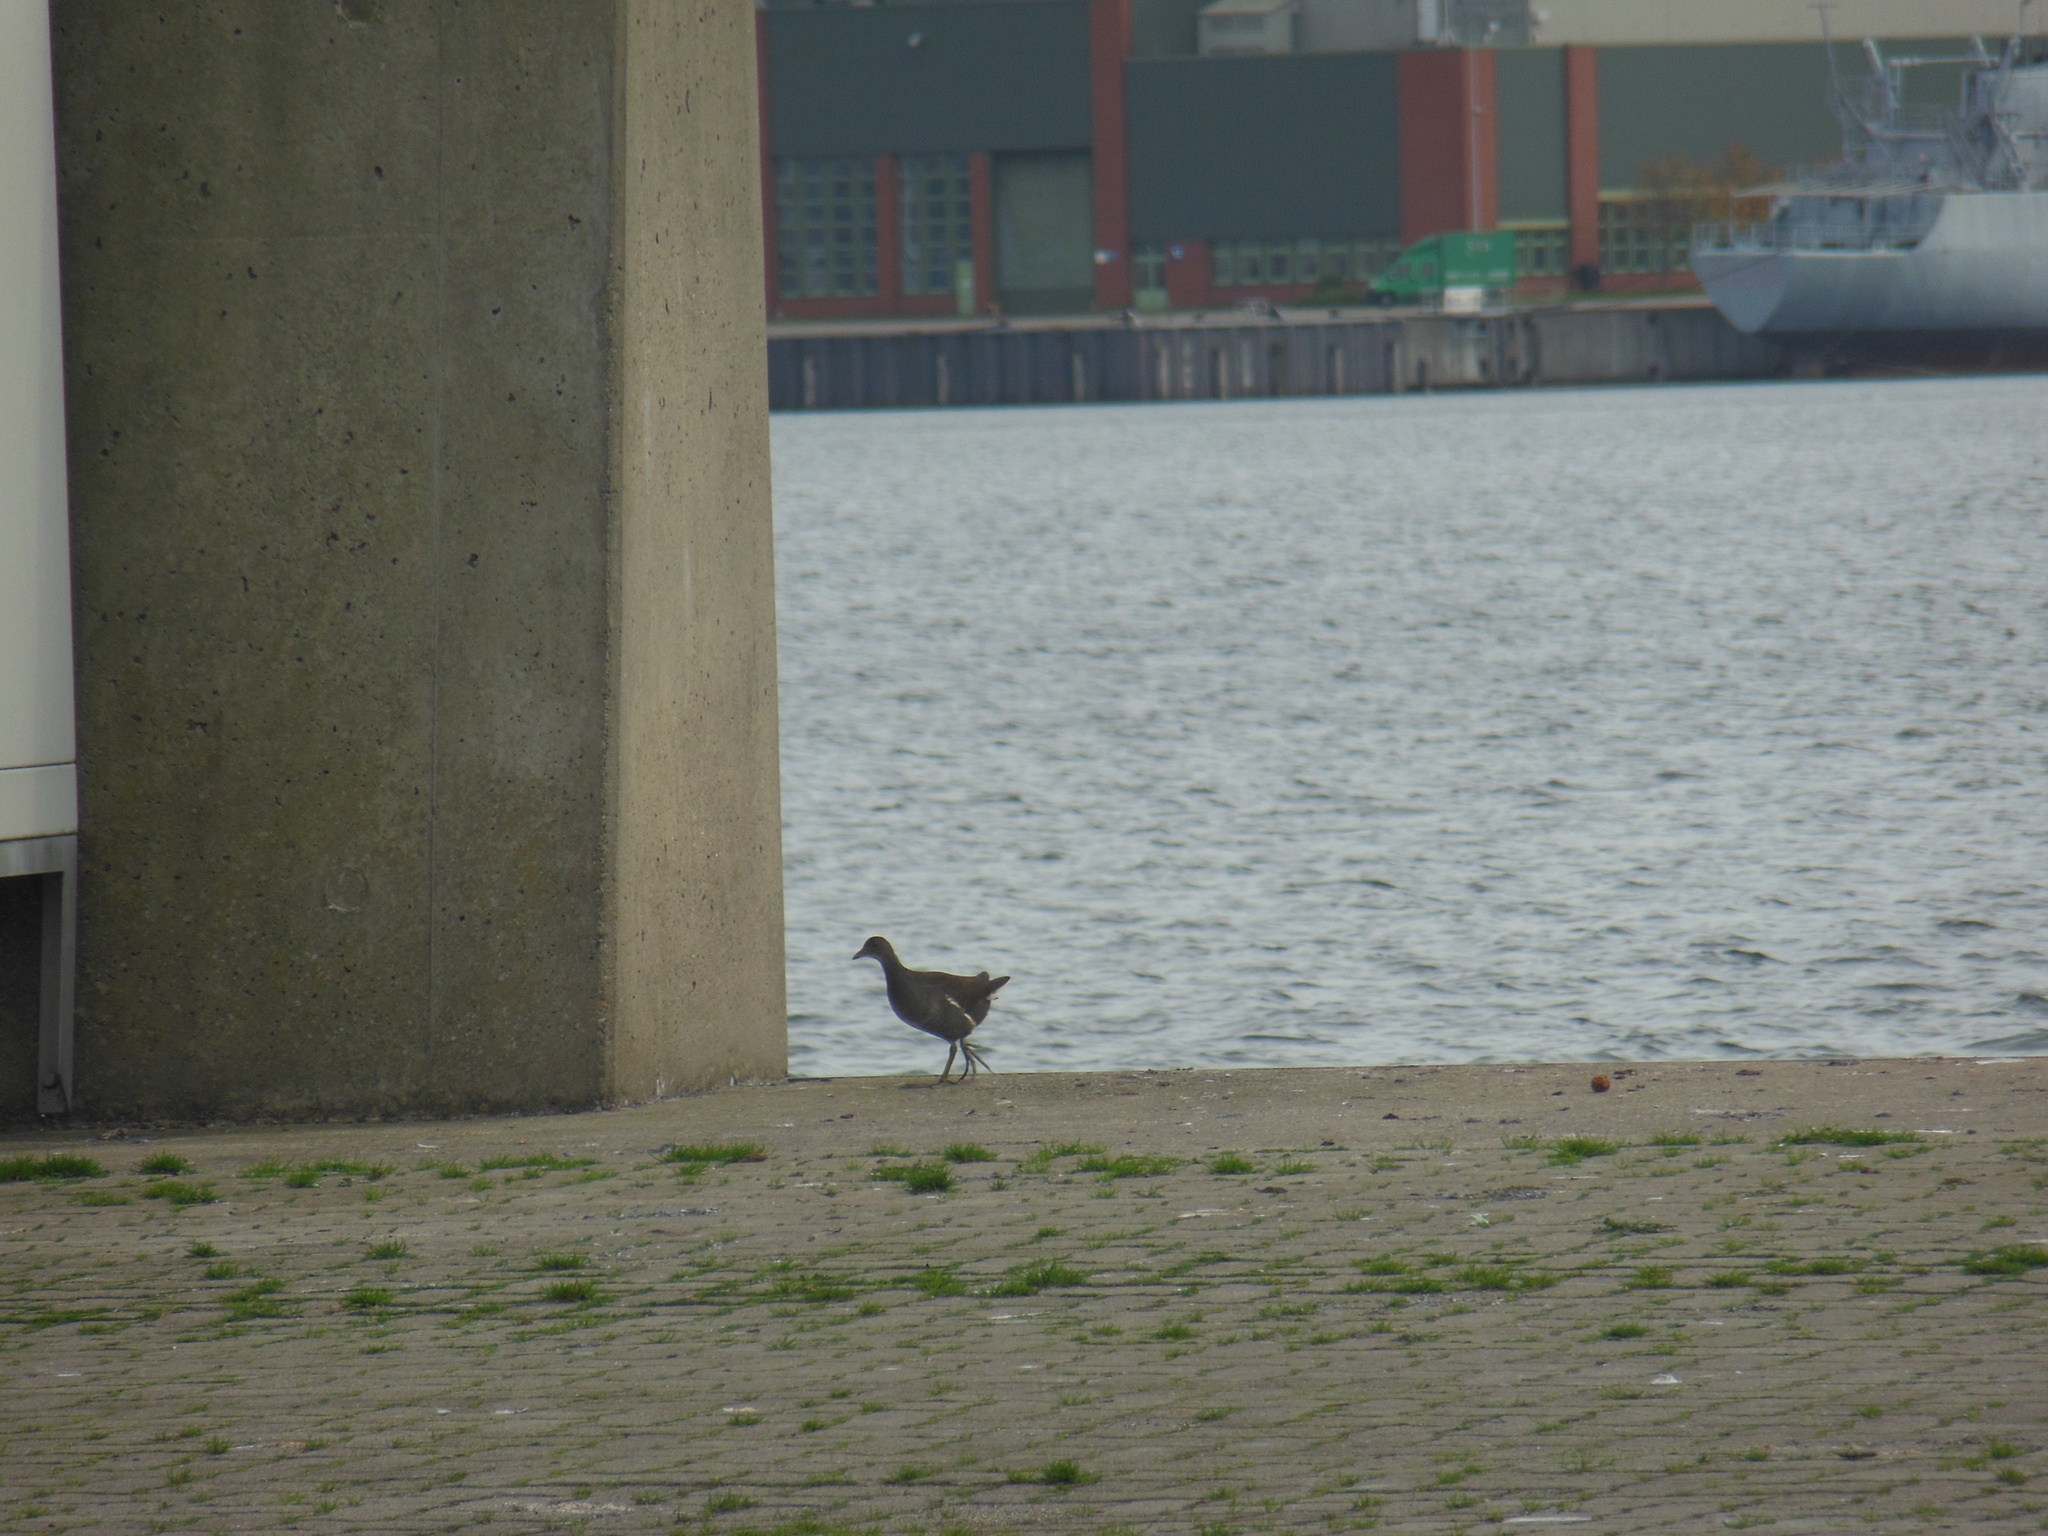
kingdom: Animalia
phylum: Chordata
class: Aves
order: Gruiformes
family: Rallidae
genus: Gallinula
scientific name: Gallinula chloropus
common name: Common moorhen
